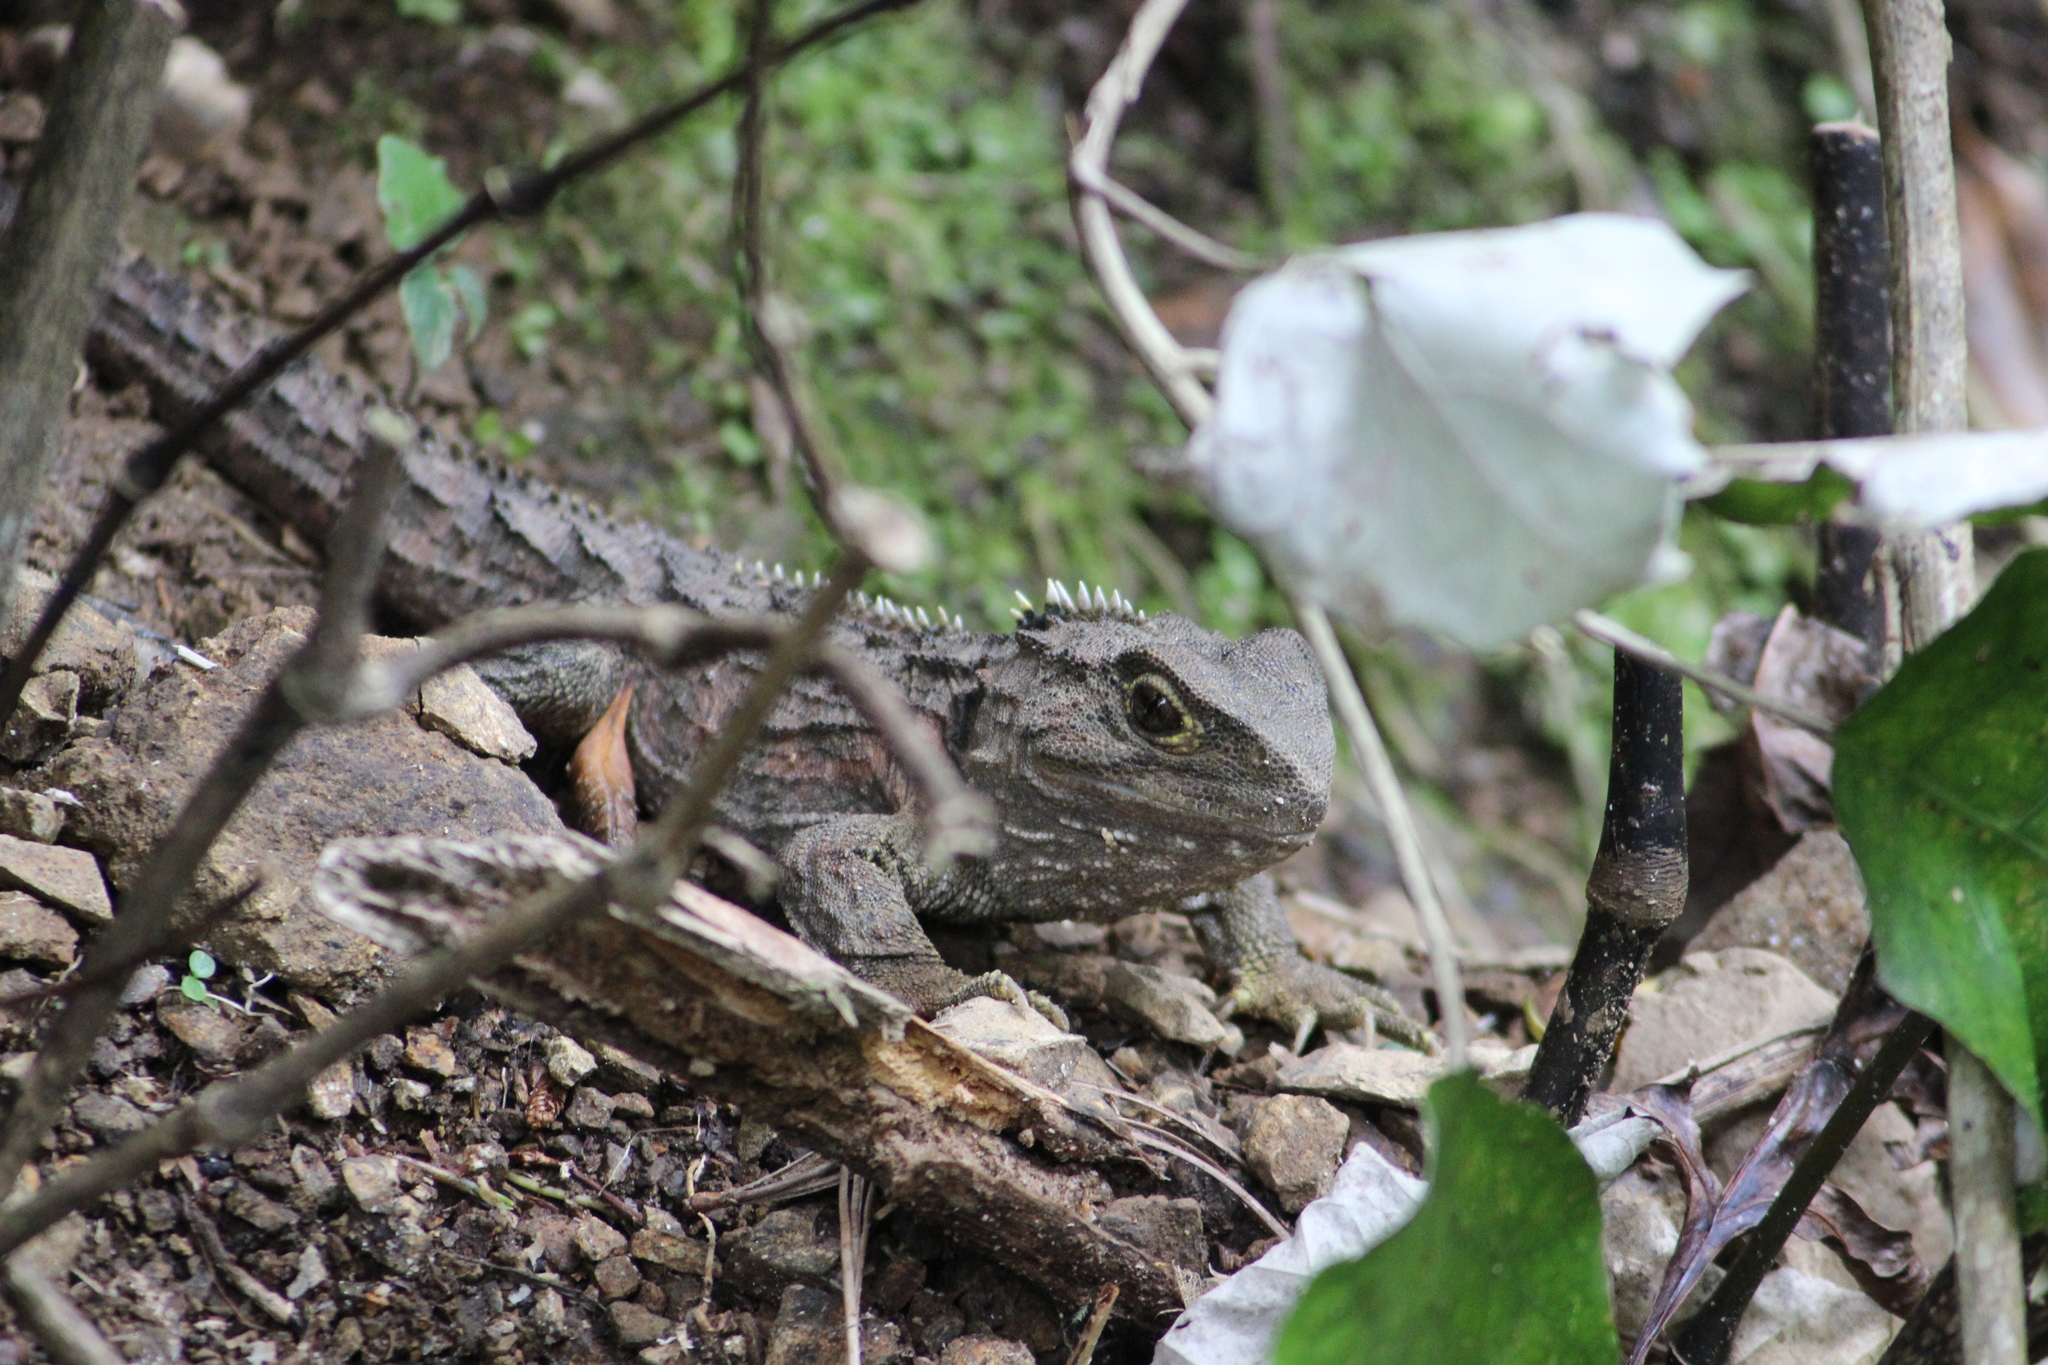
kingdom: Animalia
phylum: Chordata
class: Sphenodontia
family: Sphenodontidae
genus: Sphenodon
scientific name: Sphenodon punctatus
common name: Tuatara
